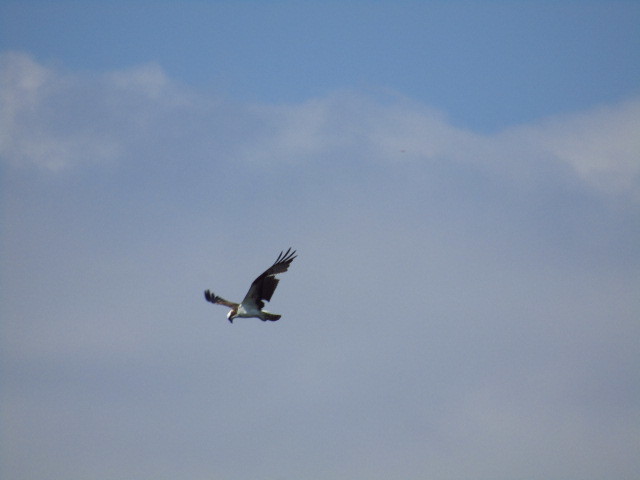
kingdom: Animalia
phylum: Chordata
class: Aves
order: Accipitriformes
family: Pandionidae
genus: Pandion
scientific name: Pandion haliaetus
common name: Osprey
